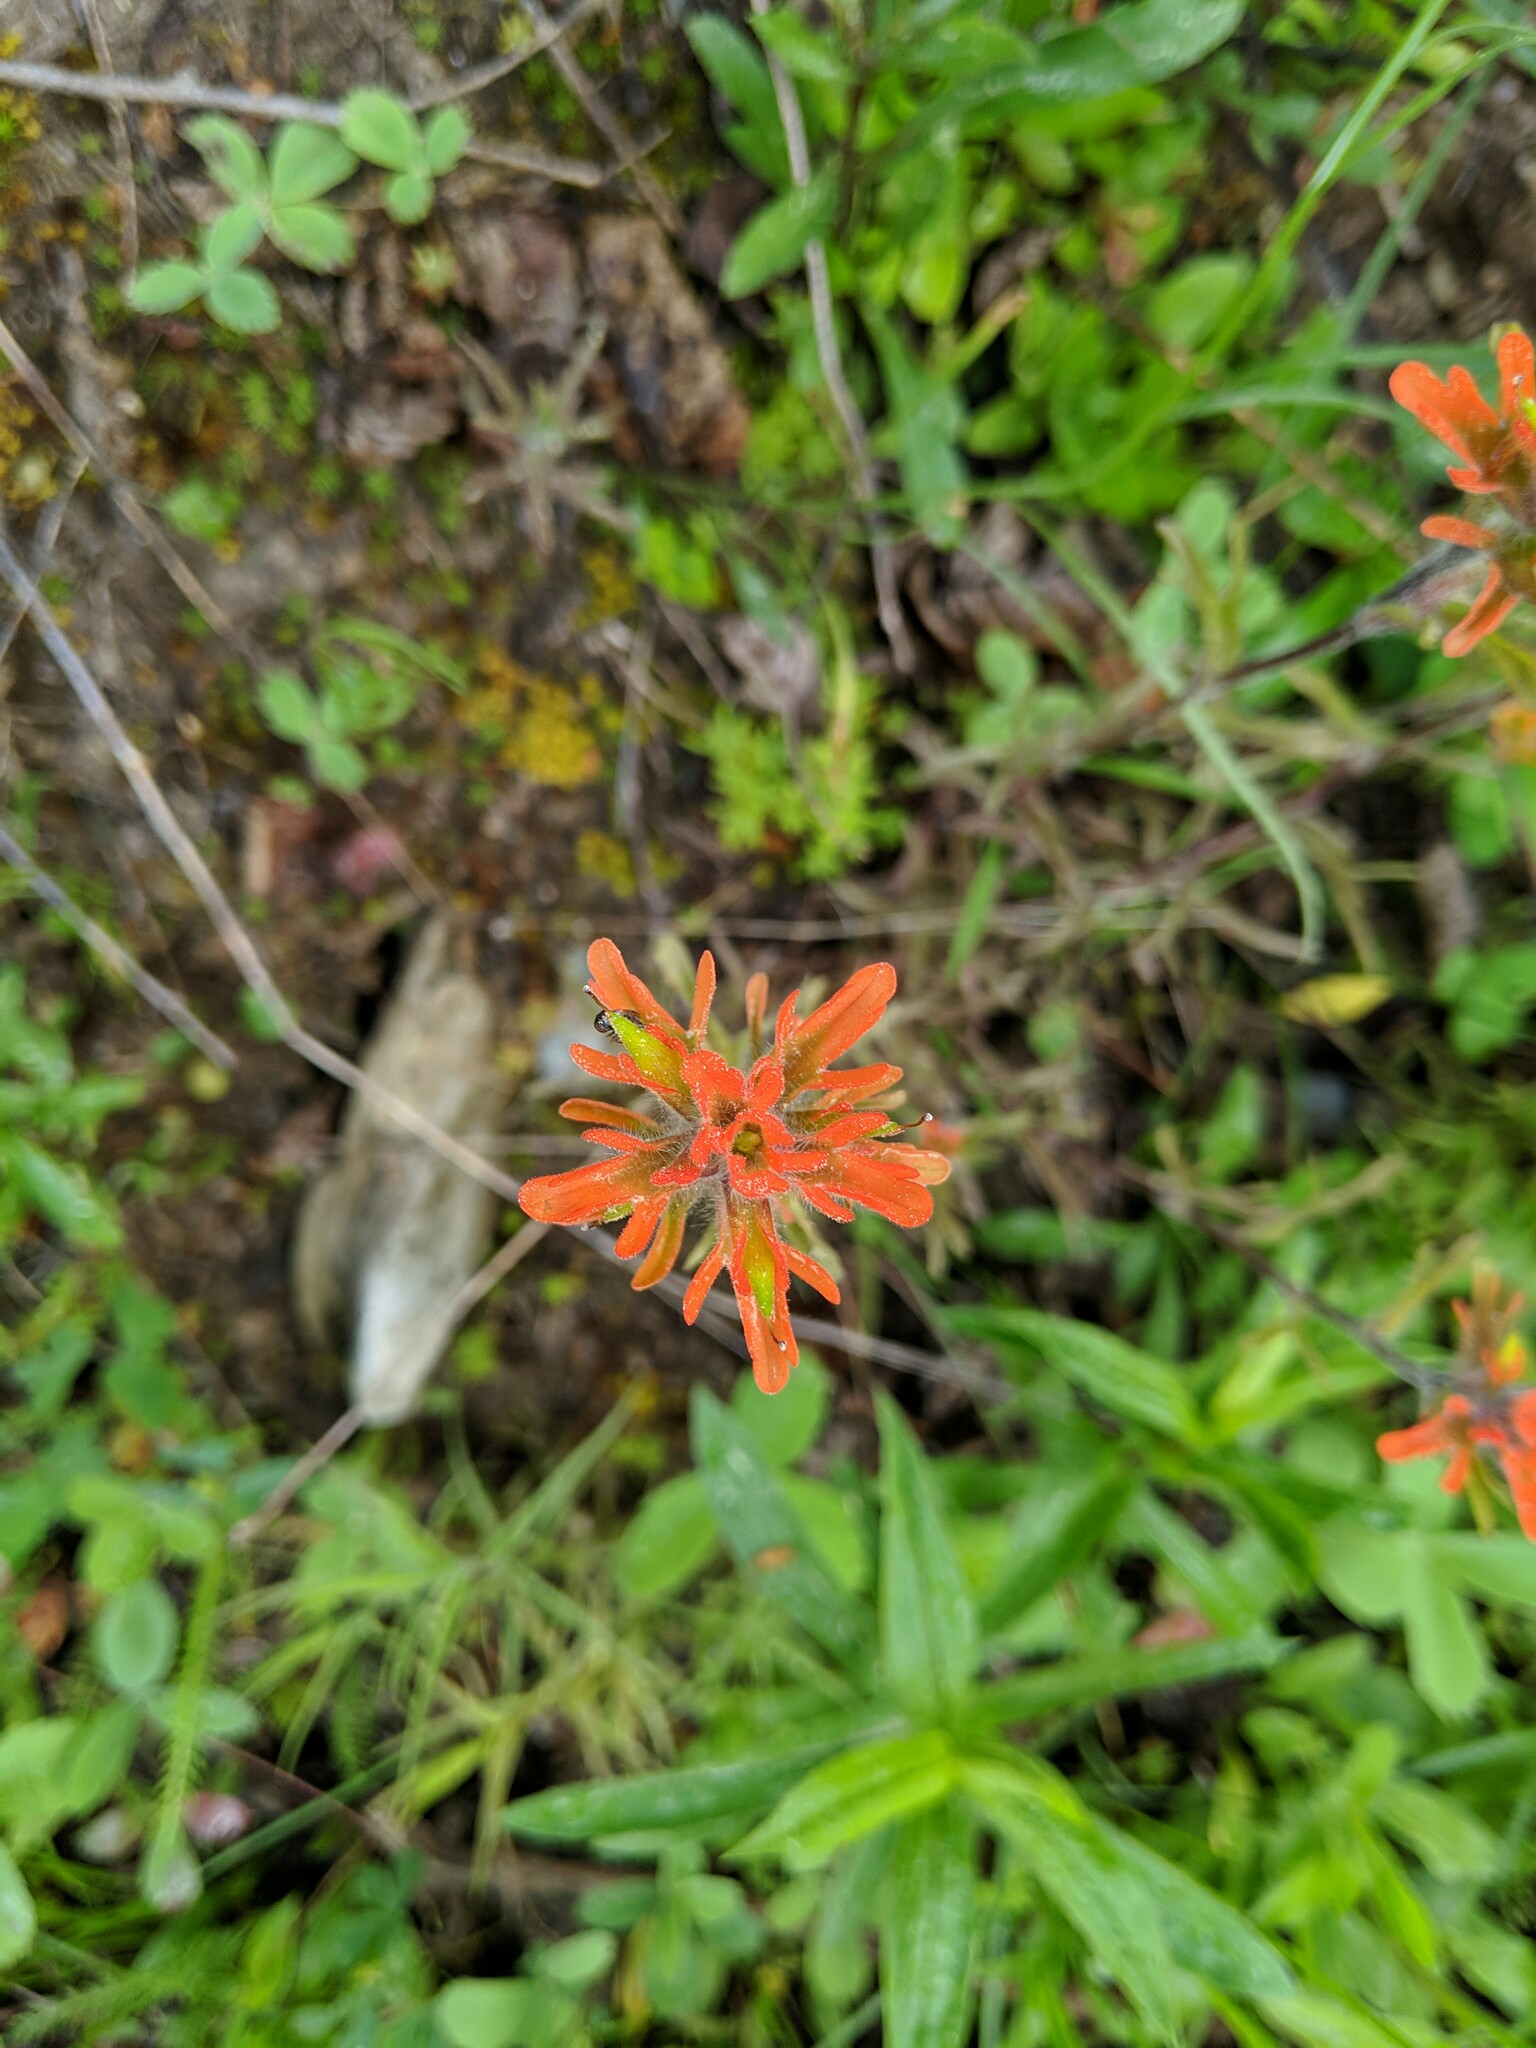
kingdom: Plantae
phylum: Tracheophyta
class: Magnoliopsida
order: Lamiales
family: Orobanchaceae
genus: Castilleja
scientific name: Castilleja hispida
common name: Bristly paintbrush
